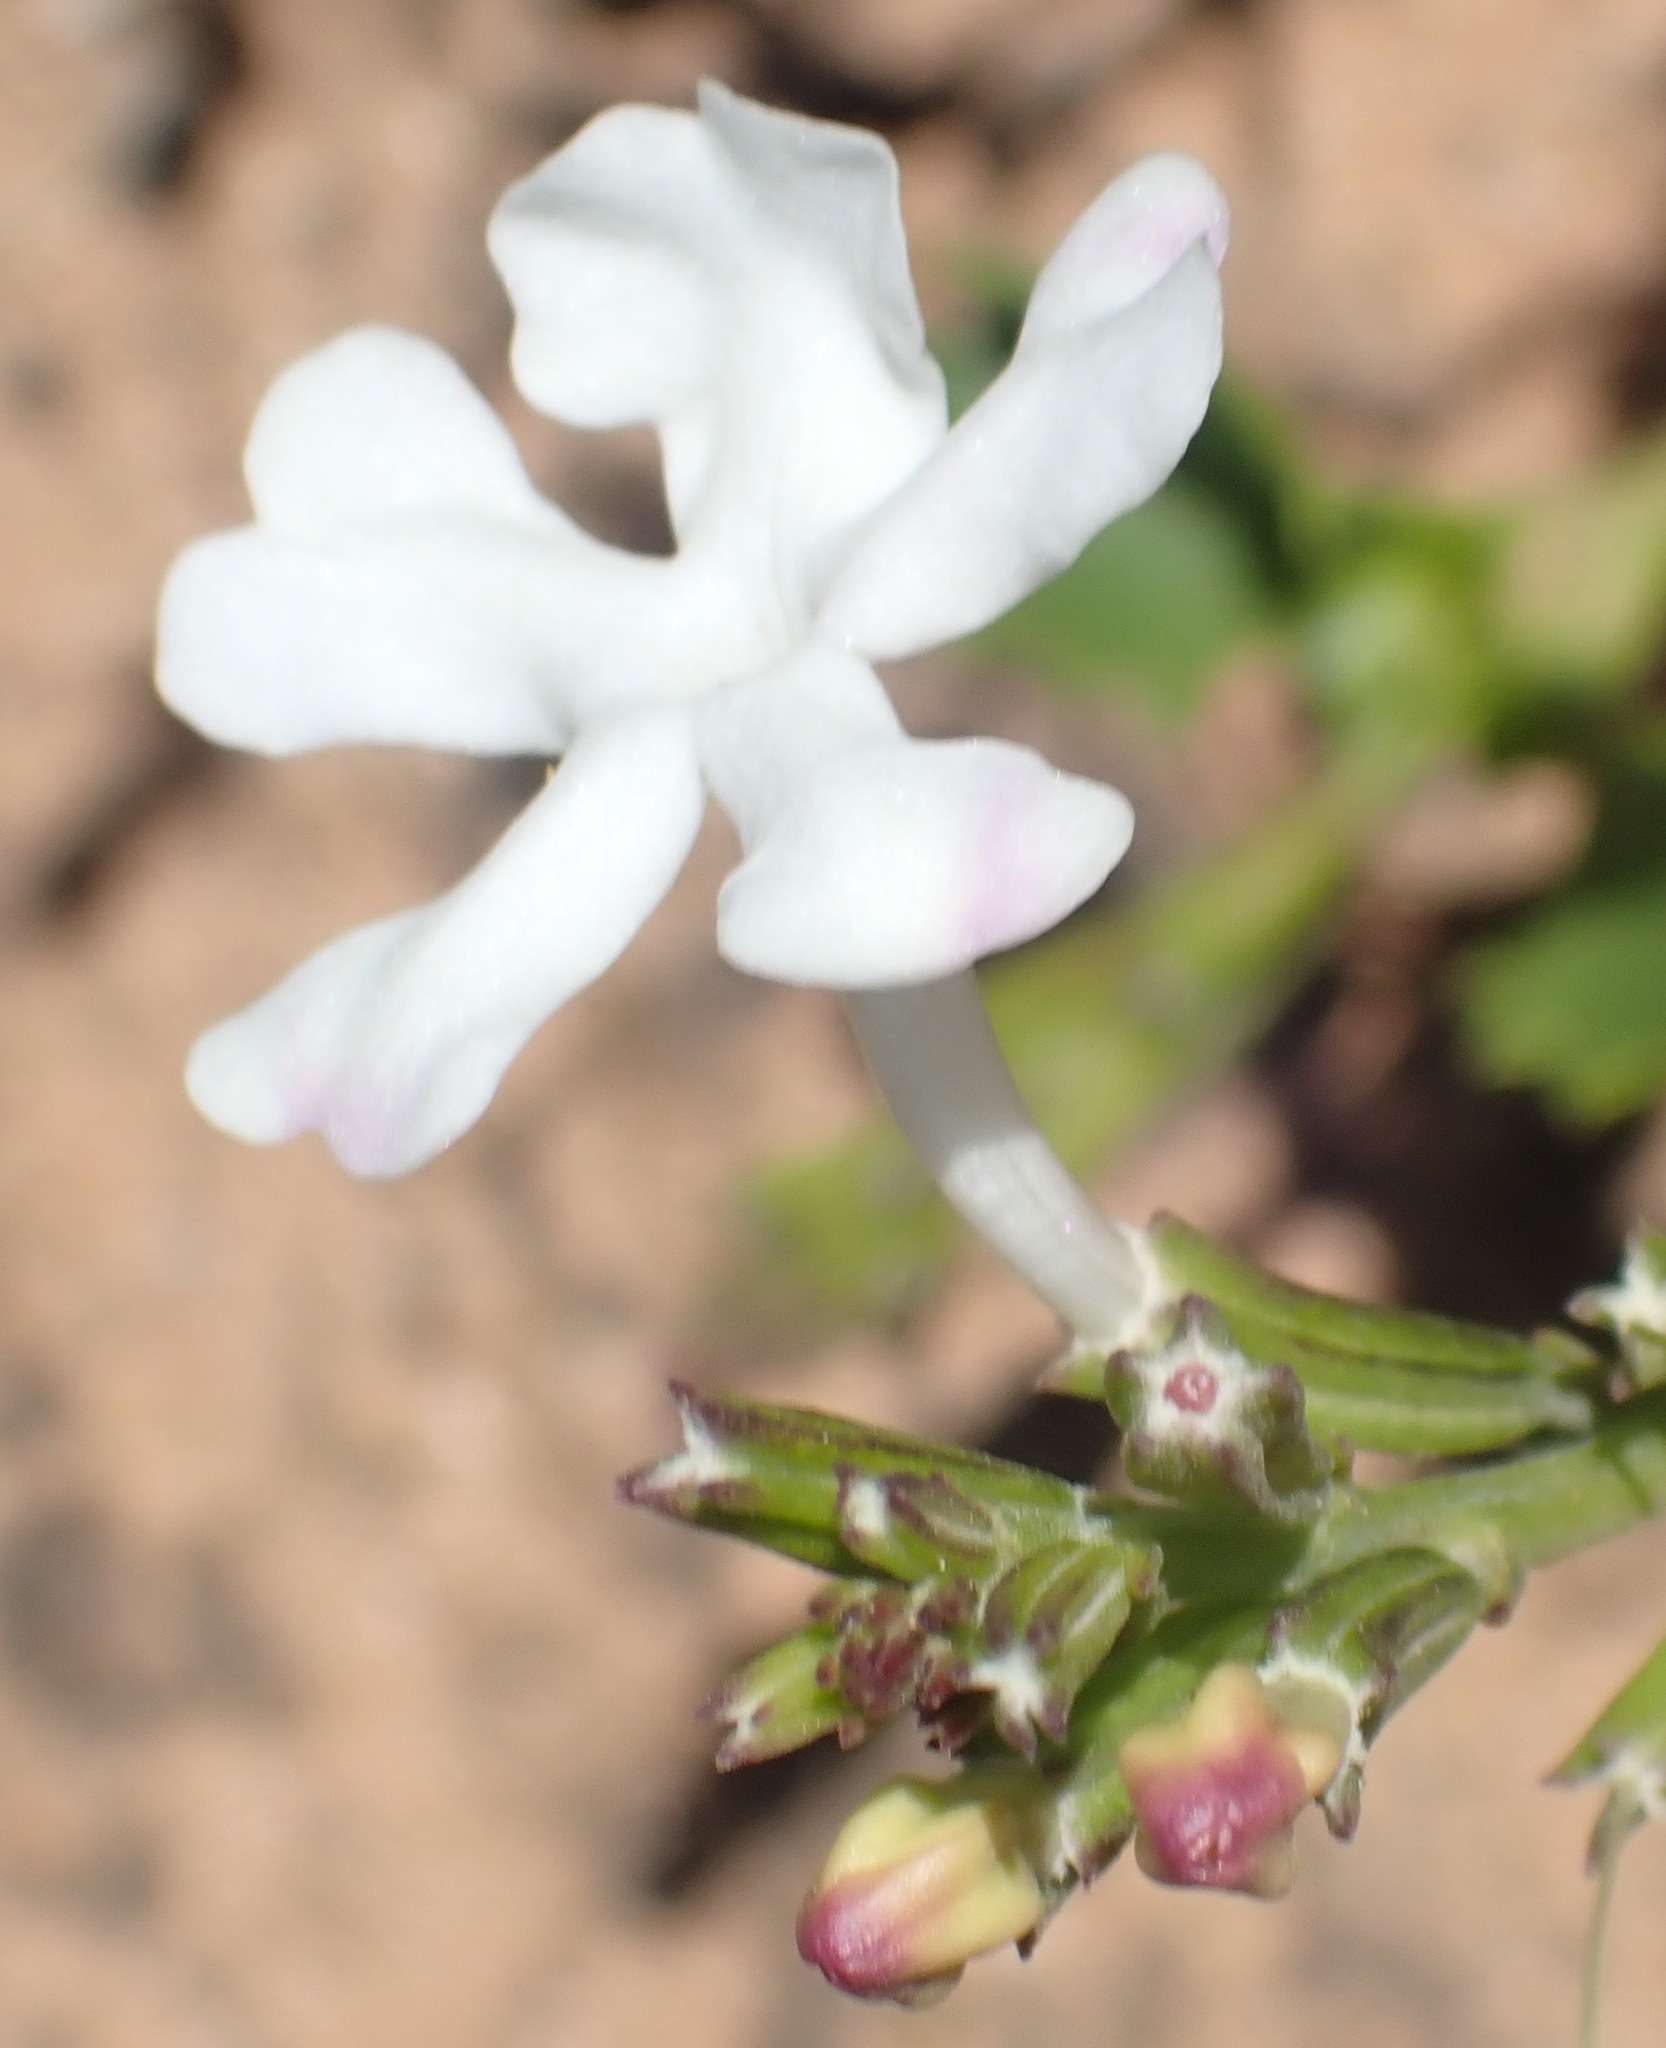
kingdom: Plantae
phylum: Tracheophyta
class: Magnoliopsida
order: Lamiales
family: Verbenaceae
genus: Chascanum
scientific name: Chascanum cuneifolium
